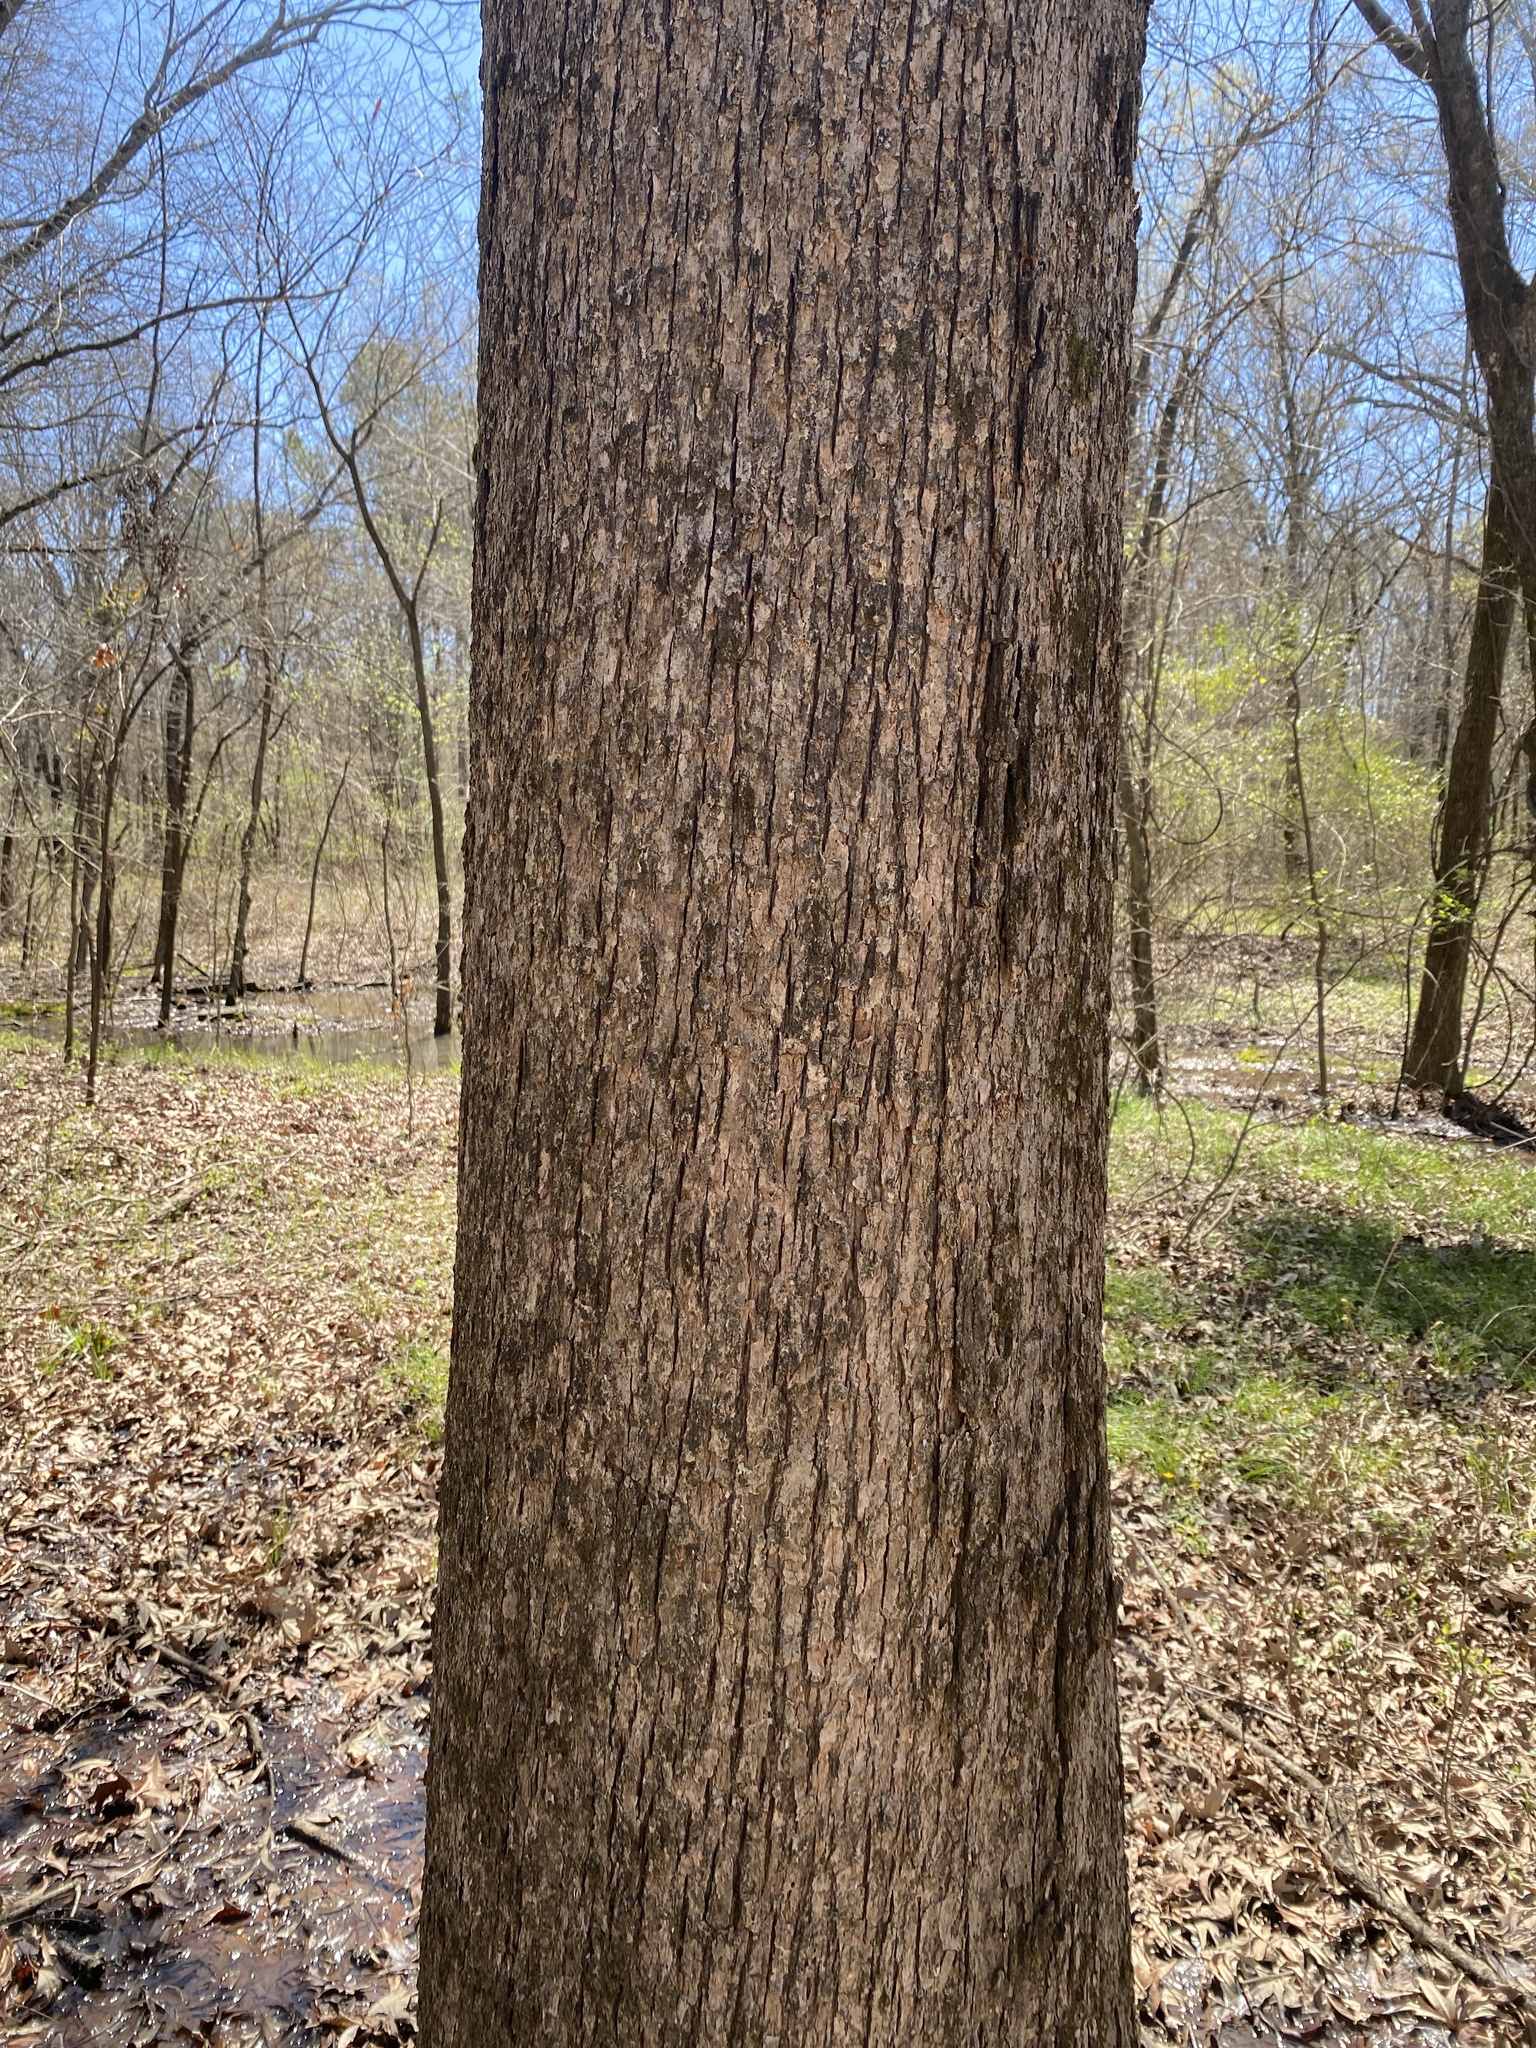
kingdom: Plantae
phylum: Tracheophyta
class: Magnoliopsida
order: Fagales
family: Fagaceae
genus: Quercus
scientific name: Quercus lyrata
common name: Overcup oak
